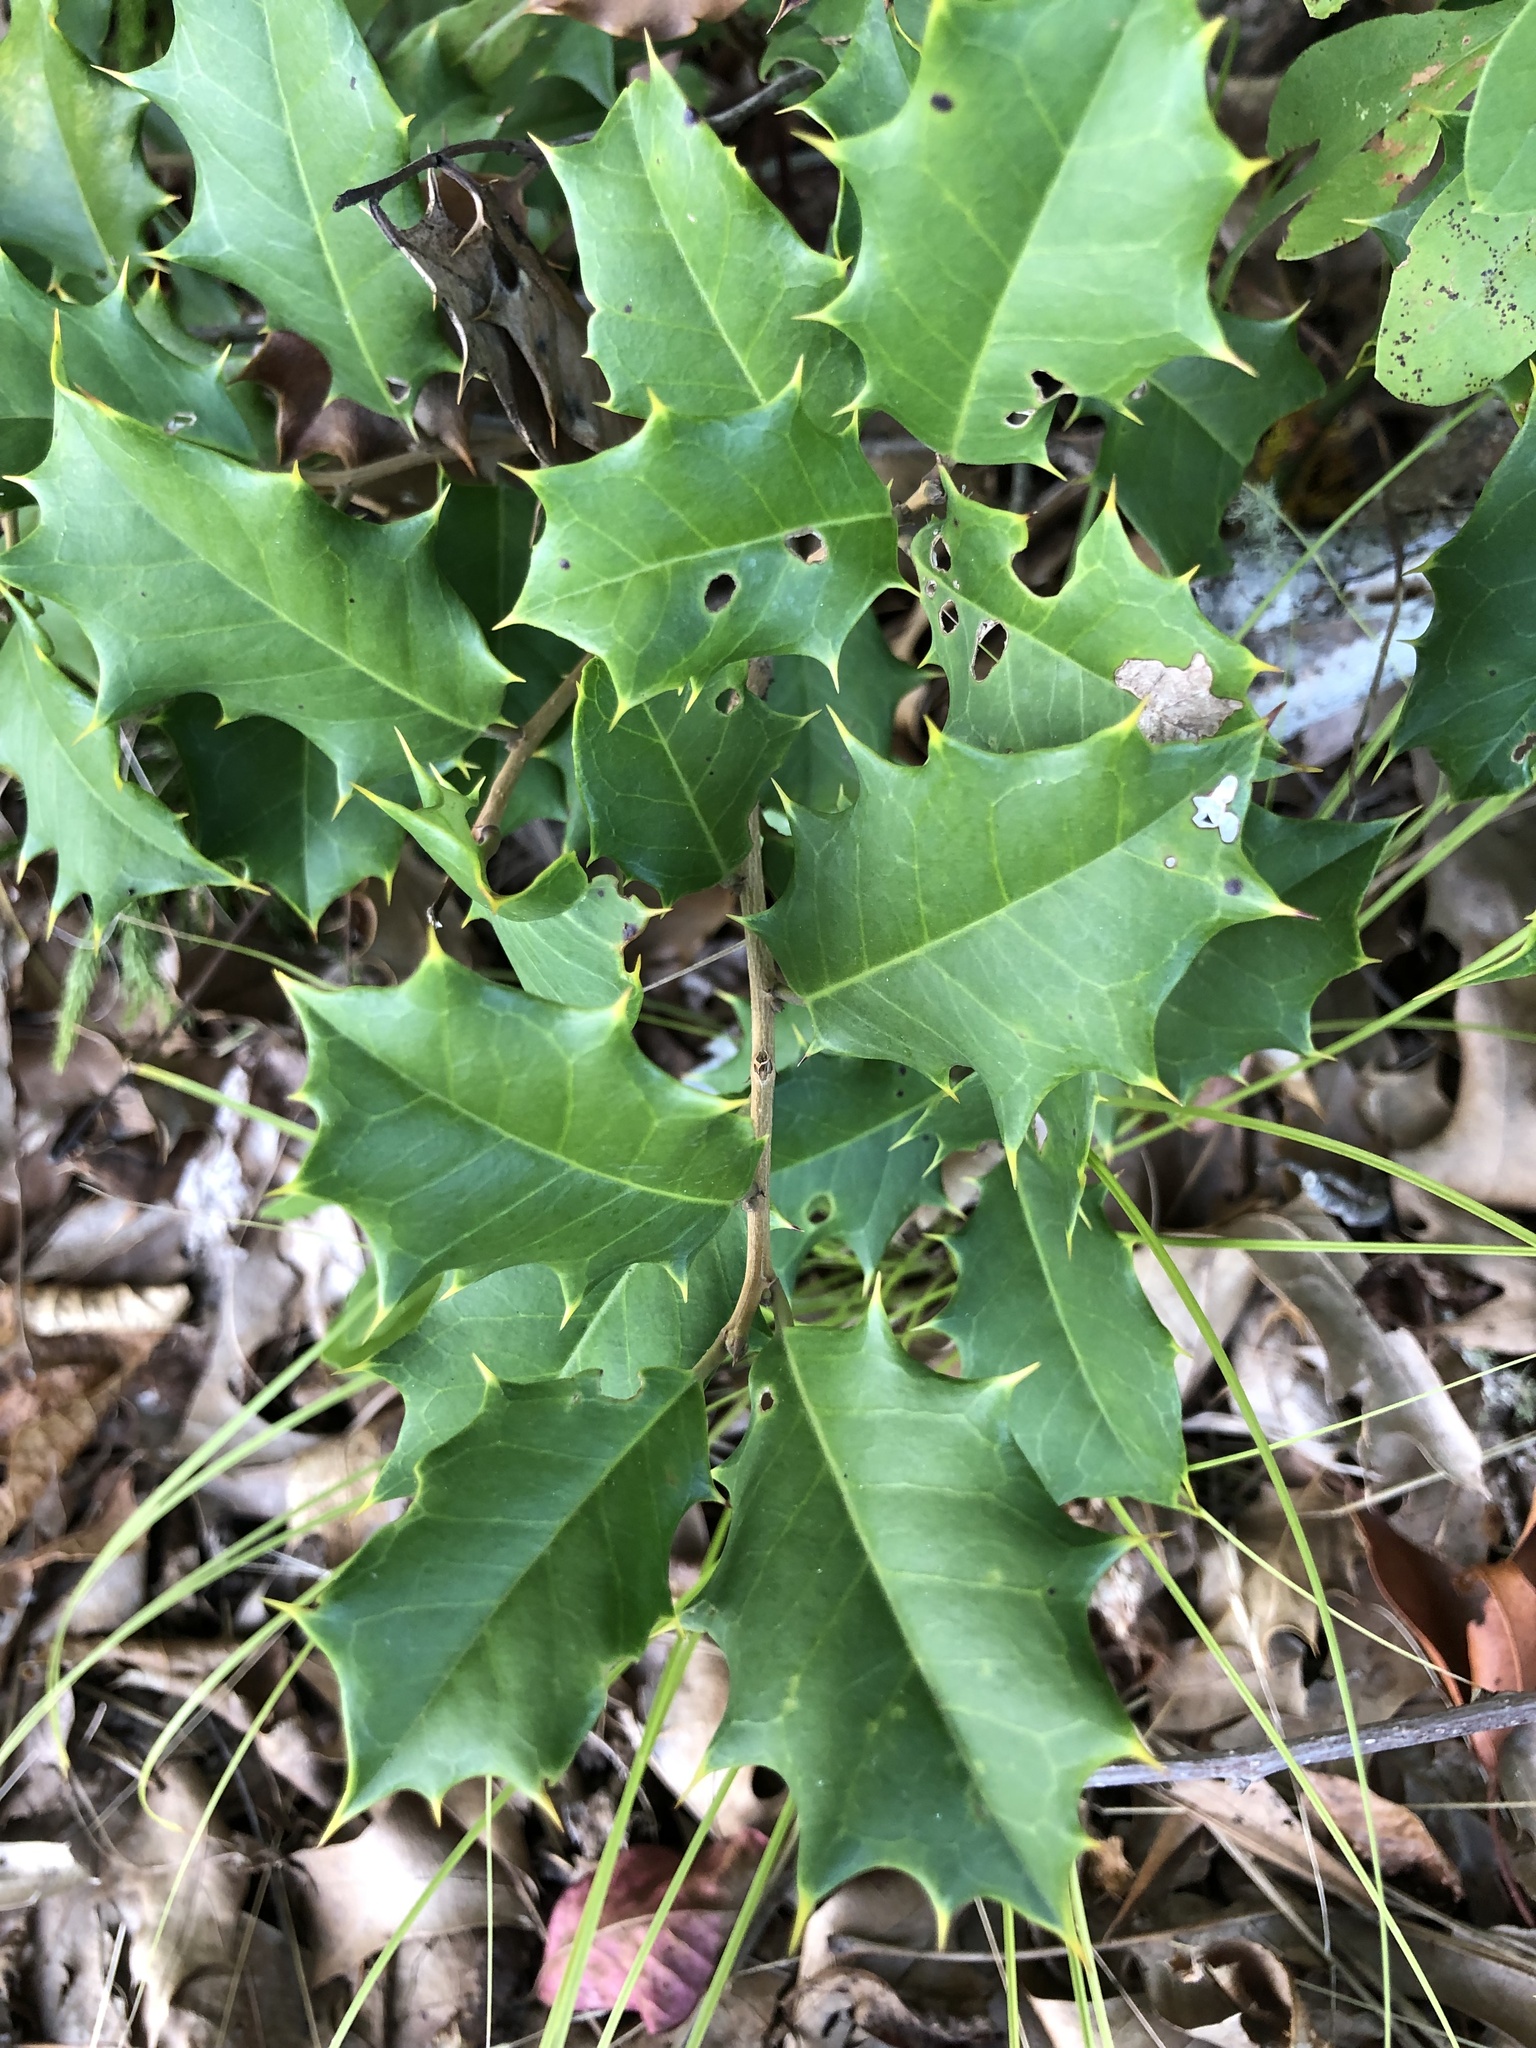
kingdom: Plantae
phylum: Tracheophyta
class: Magnoliopsida
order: Aquifoliales
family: Aquifoliaceae
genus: Ilex
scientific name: Ilex opaca
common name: American holly
